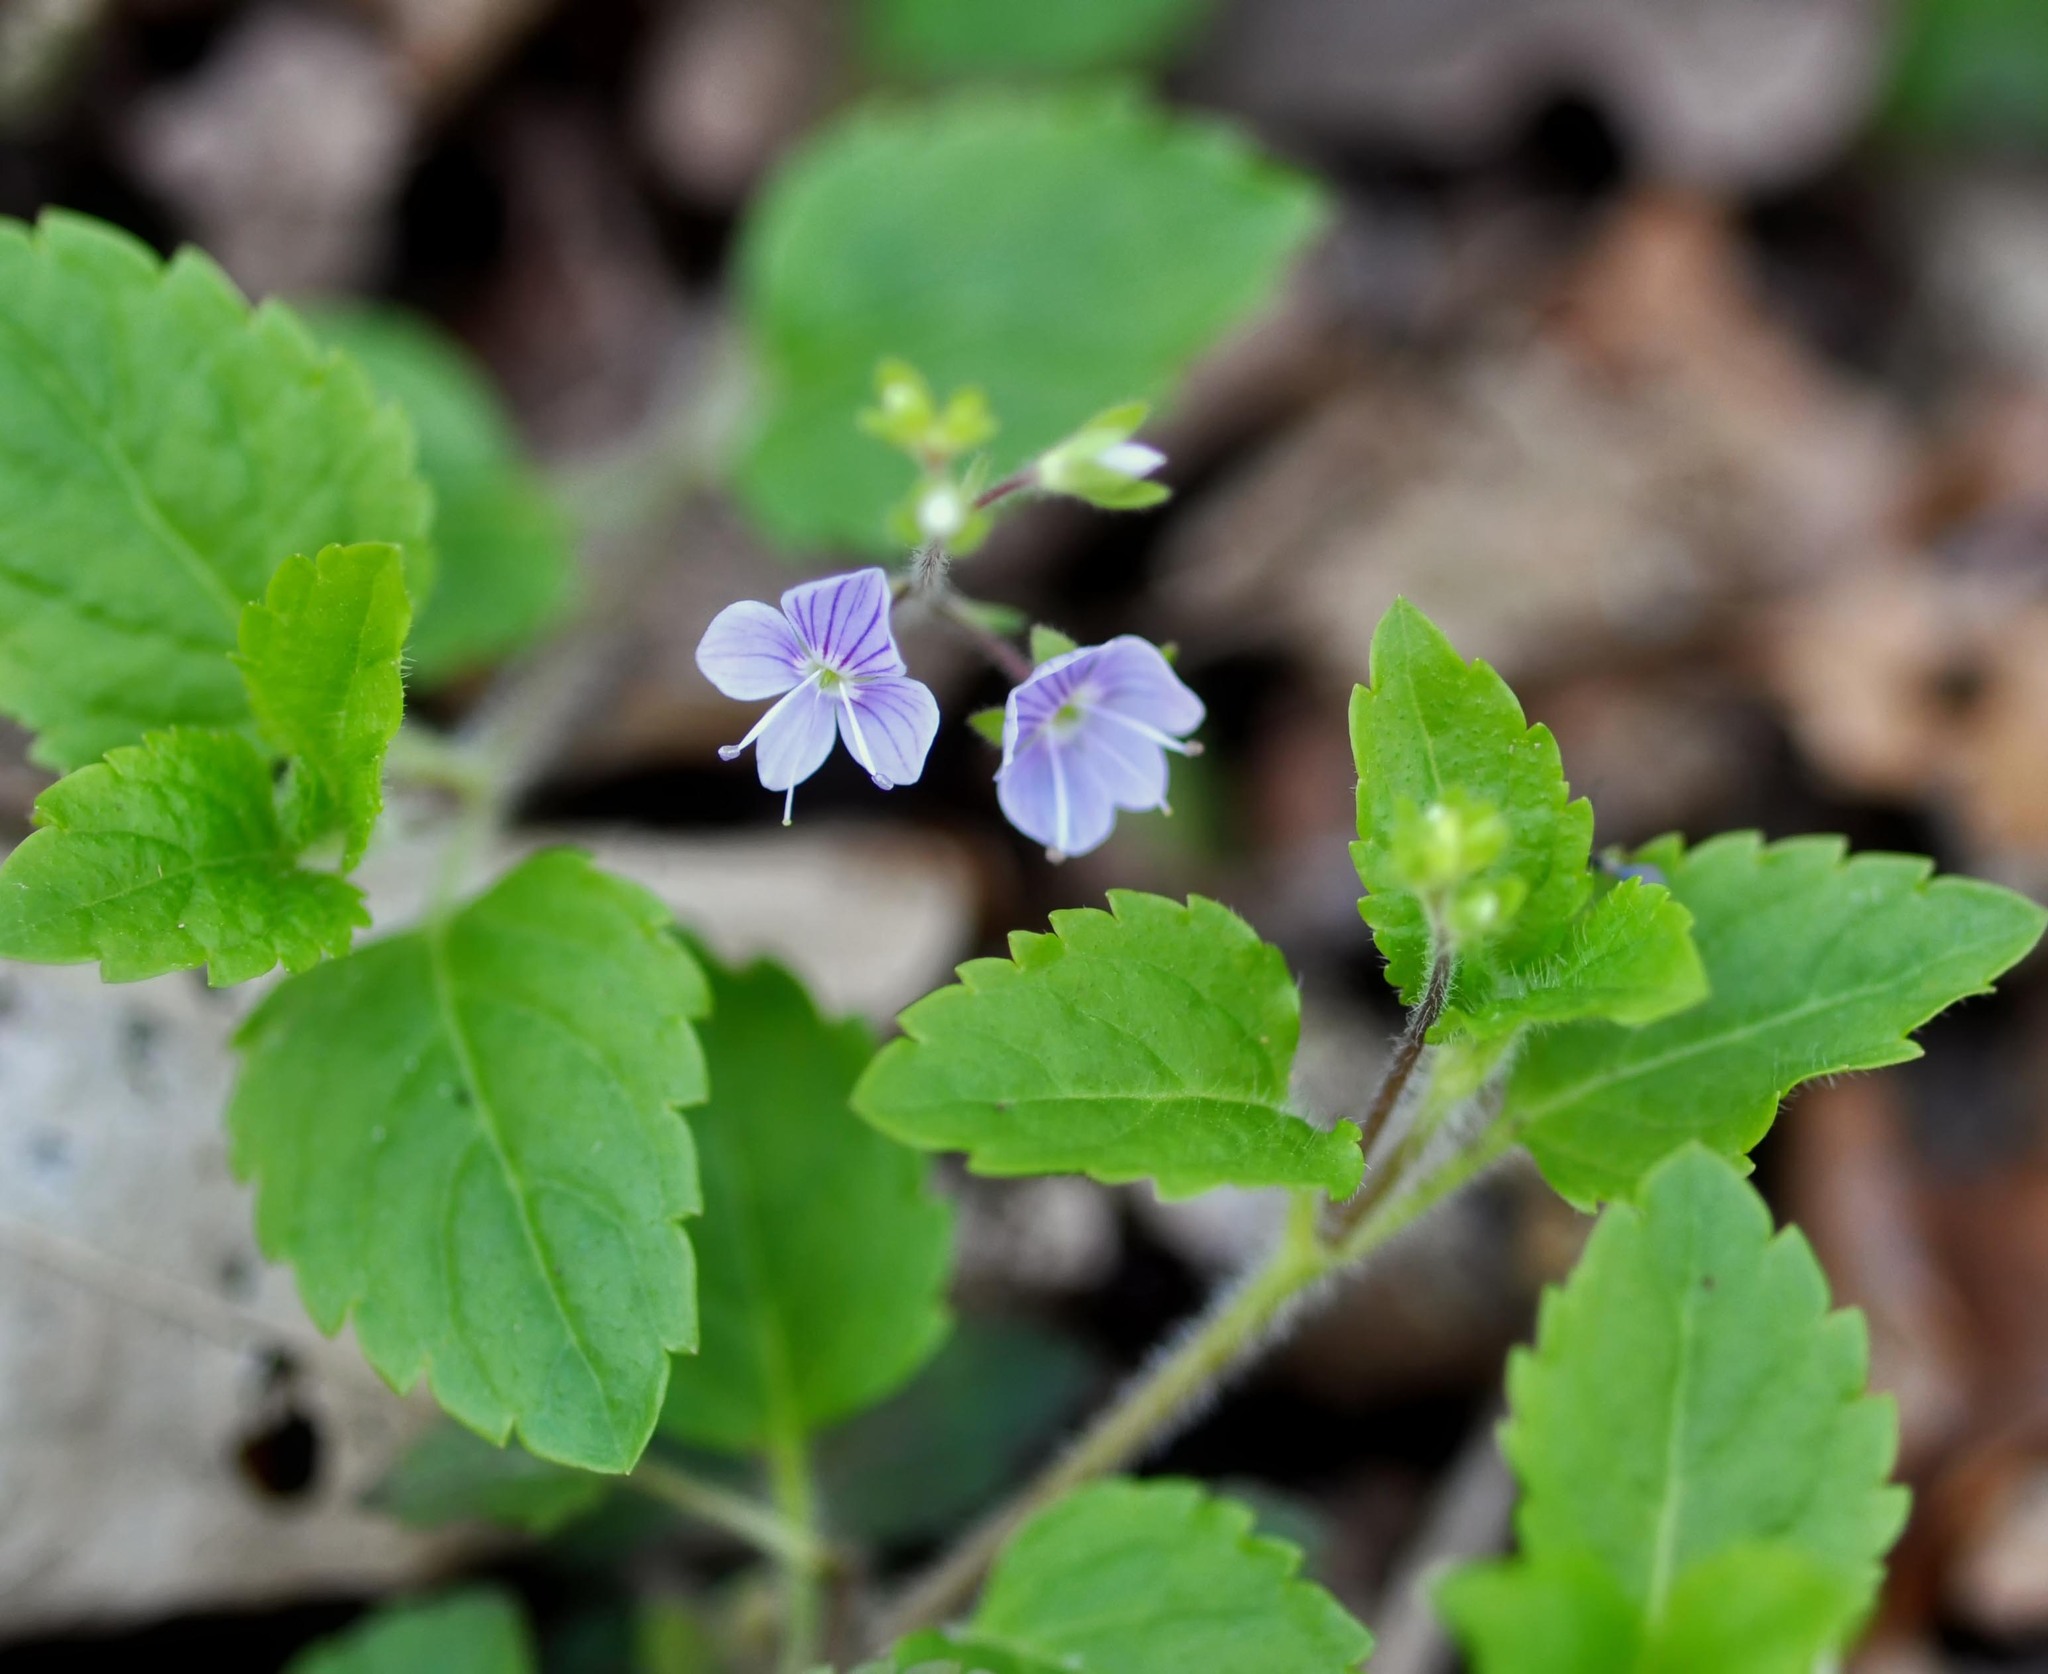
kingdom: Plantae
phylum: Tracheophyta
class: Magnoliopsida
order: Lamiales
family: Plantaginaceae
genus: Veronica
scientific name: Veronica montana
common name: Wood speedwell
